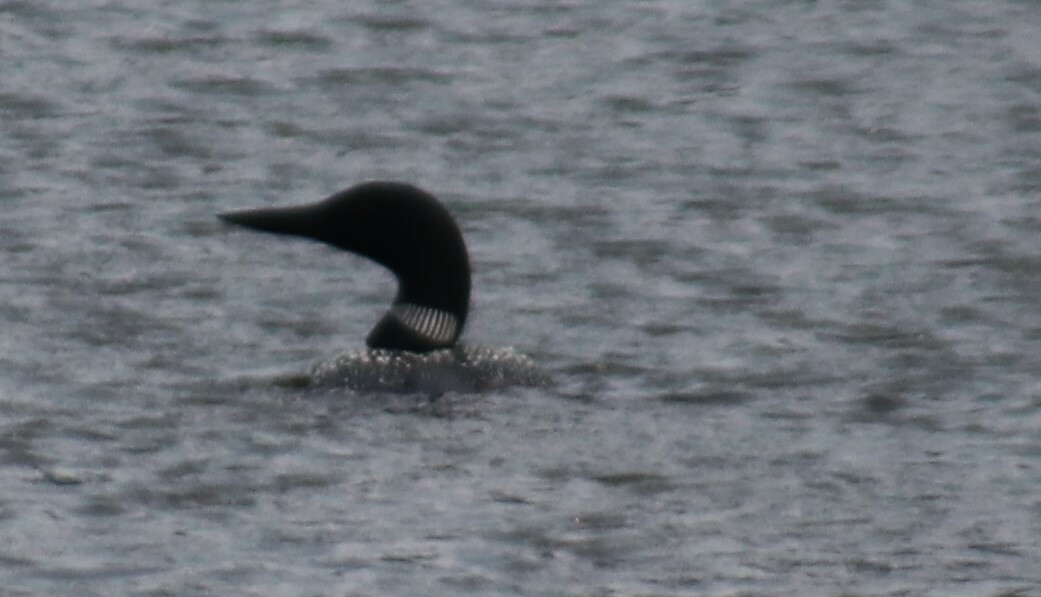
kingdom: Animalia
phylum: Chordata
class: Aves
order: Gaviiformes
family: Gaviidae
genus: Gavia
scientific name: Gavia immer
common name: Common loon
